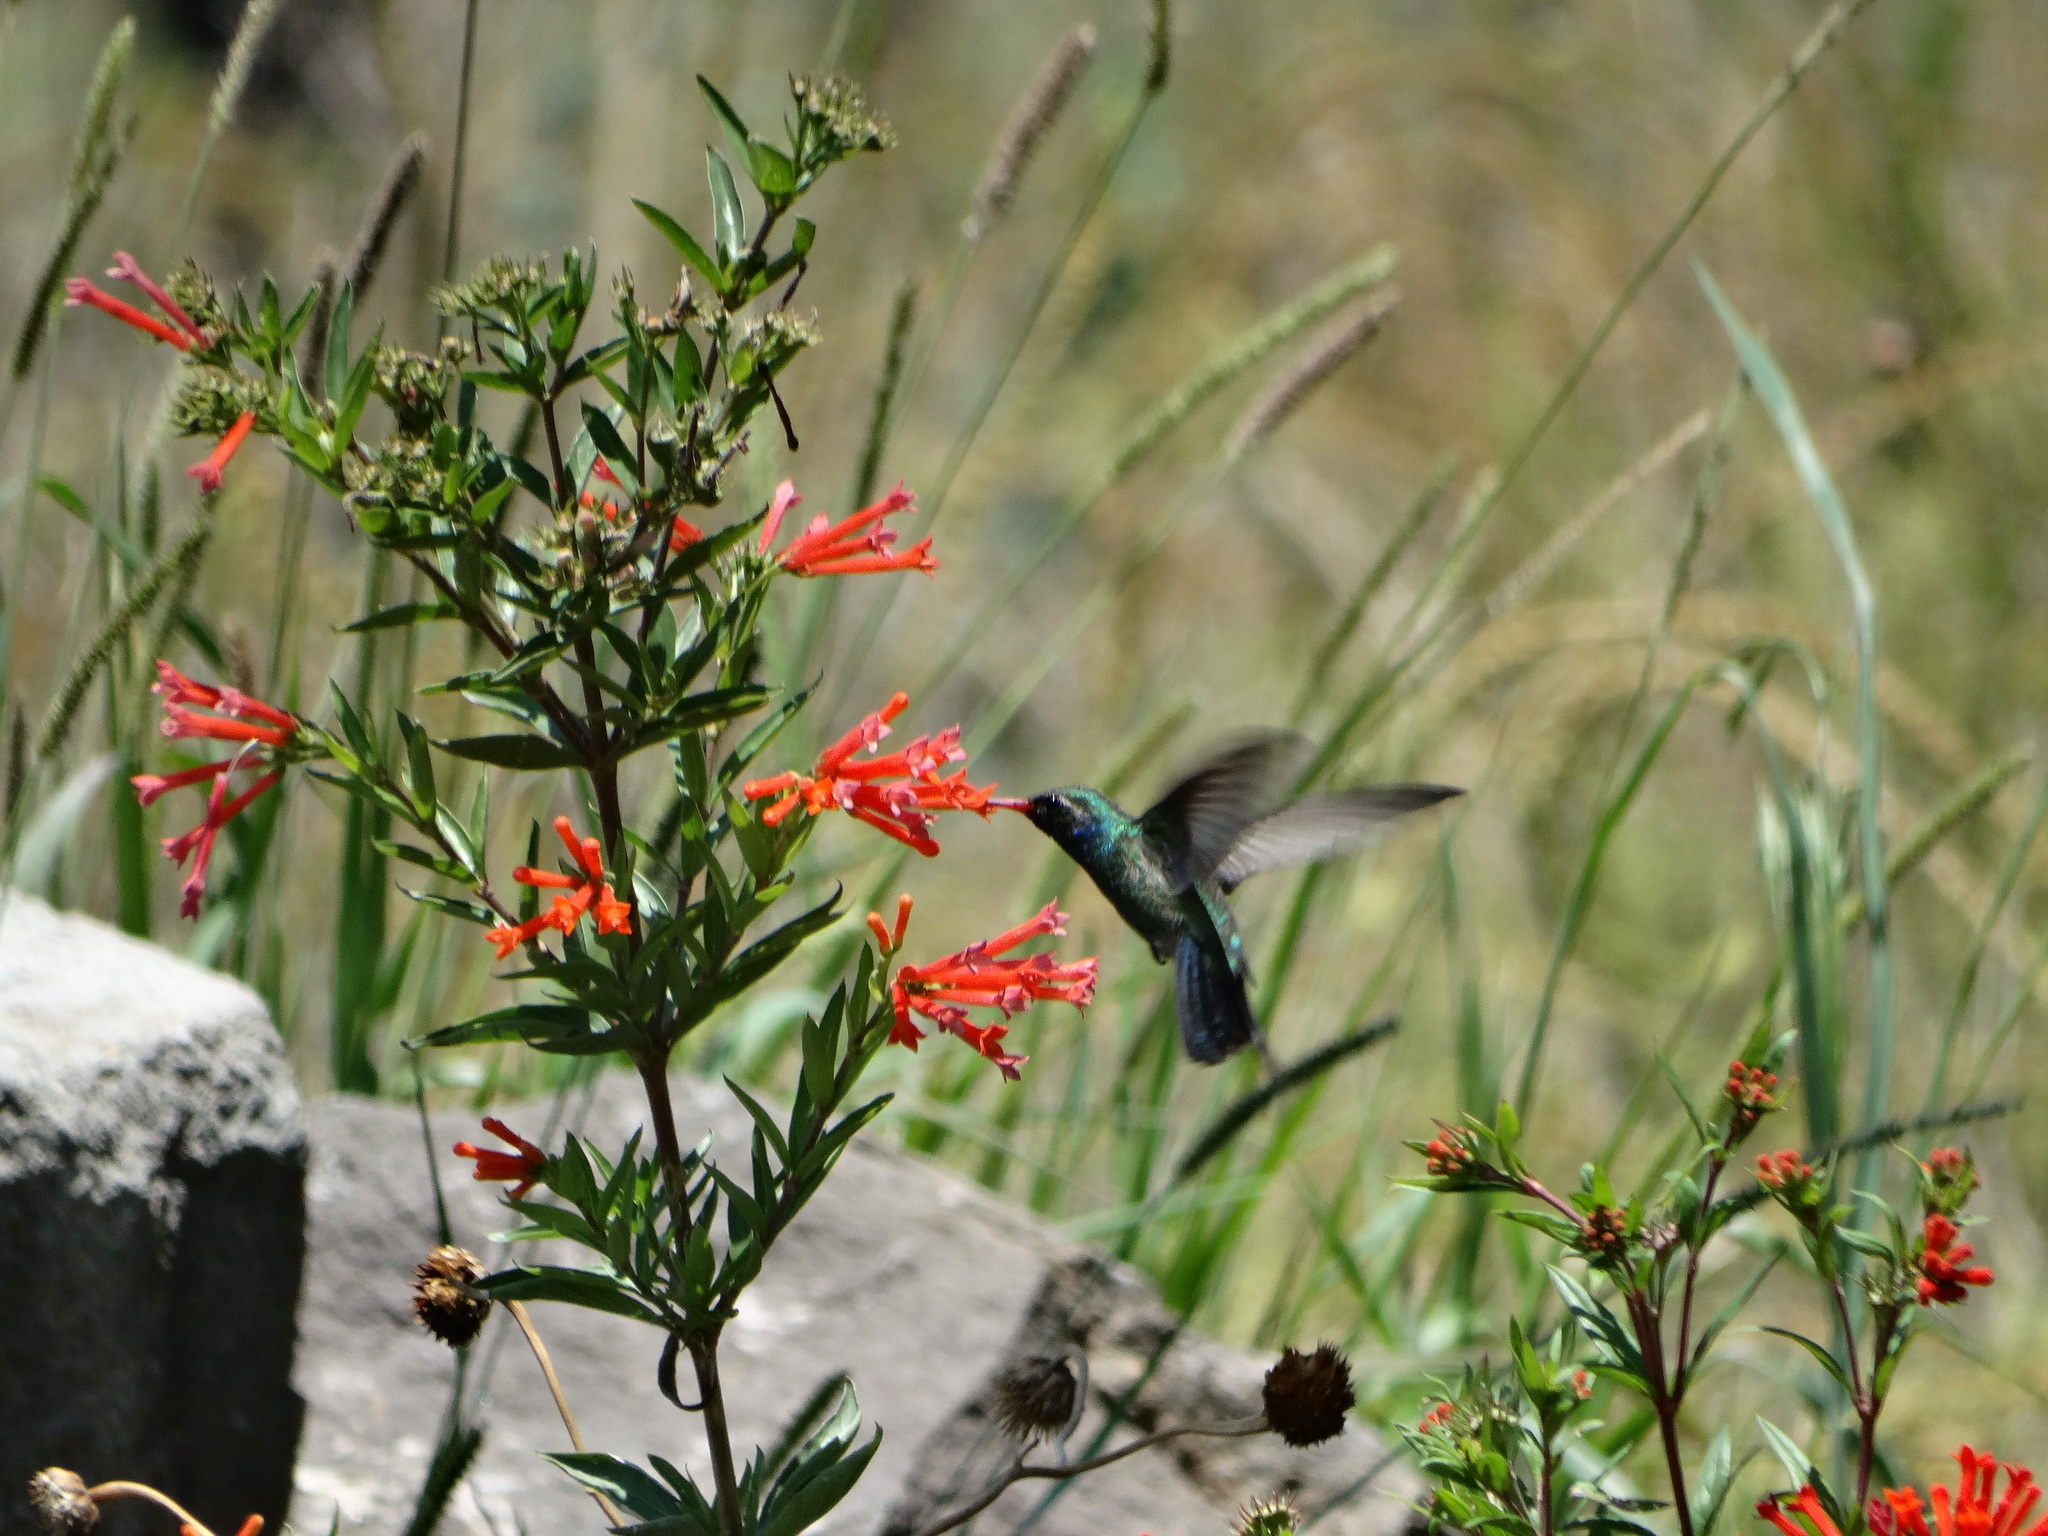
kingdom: Animalia
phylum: Chordata
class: Aves
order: Apodiformes
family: Trochilidae
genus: Cynanthus
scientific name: Cynanthus latirostris
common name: Broad-billed hummingbird
